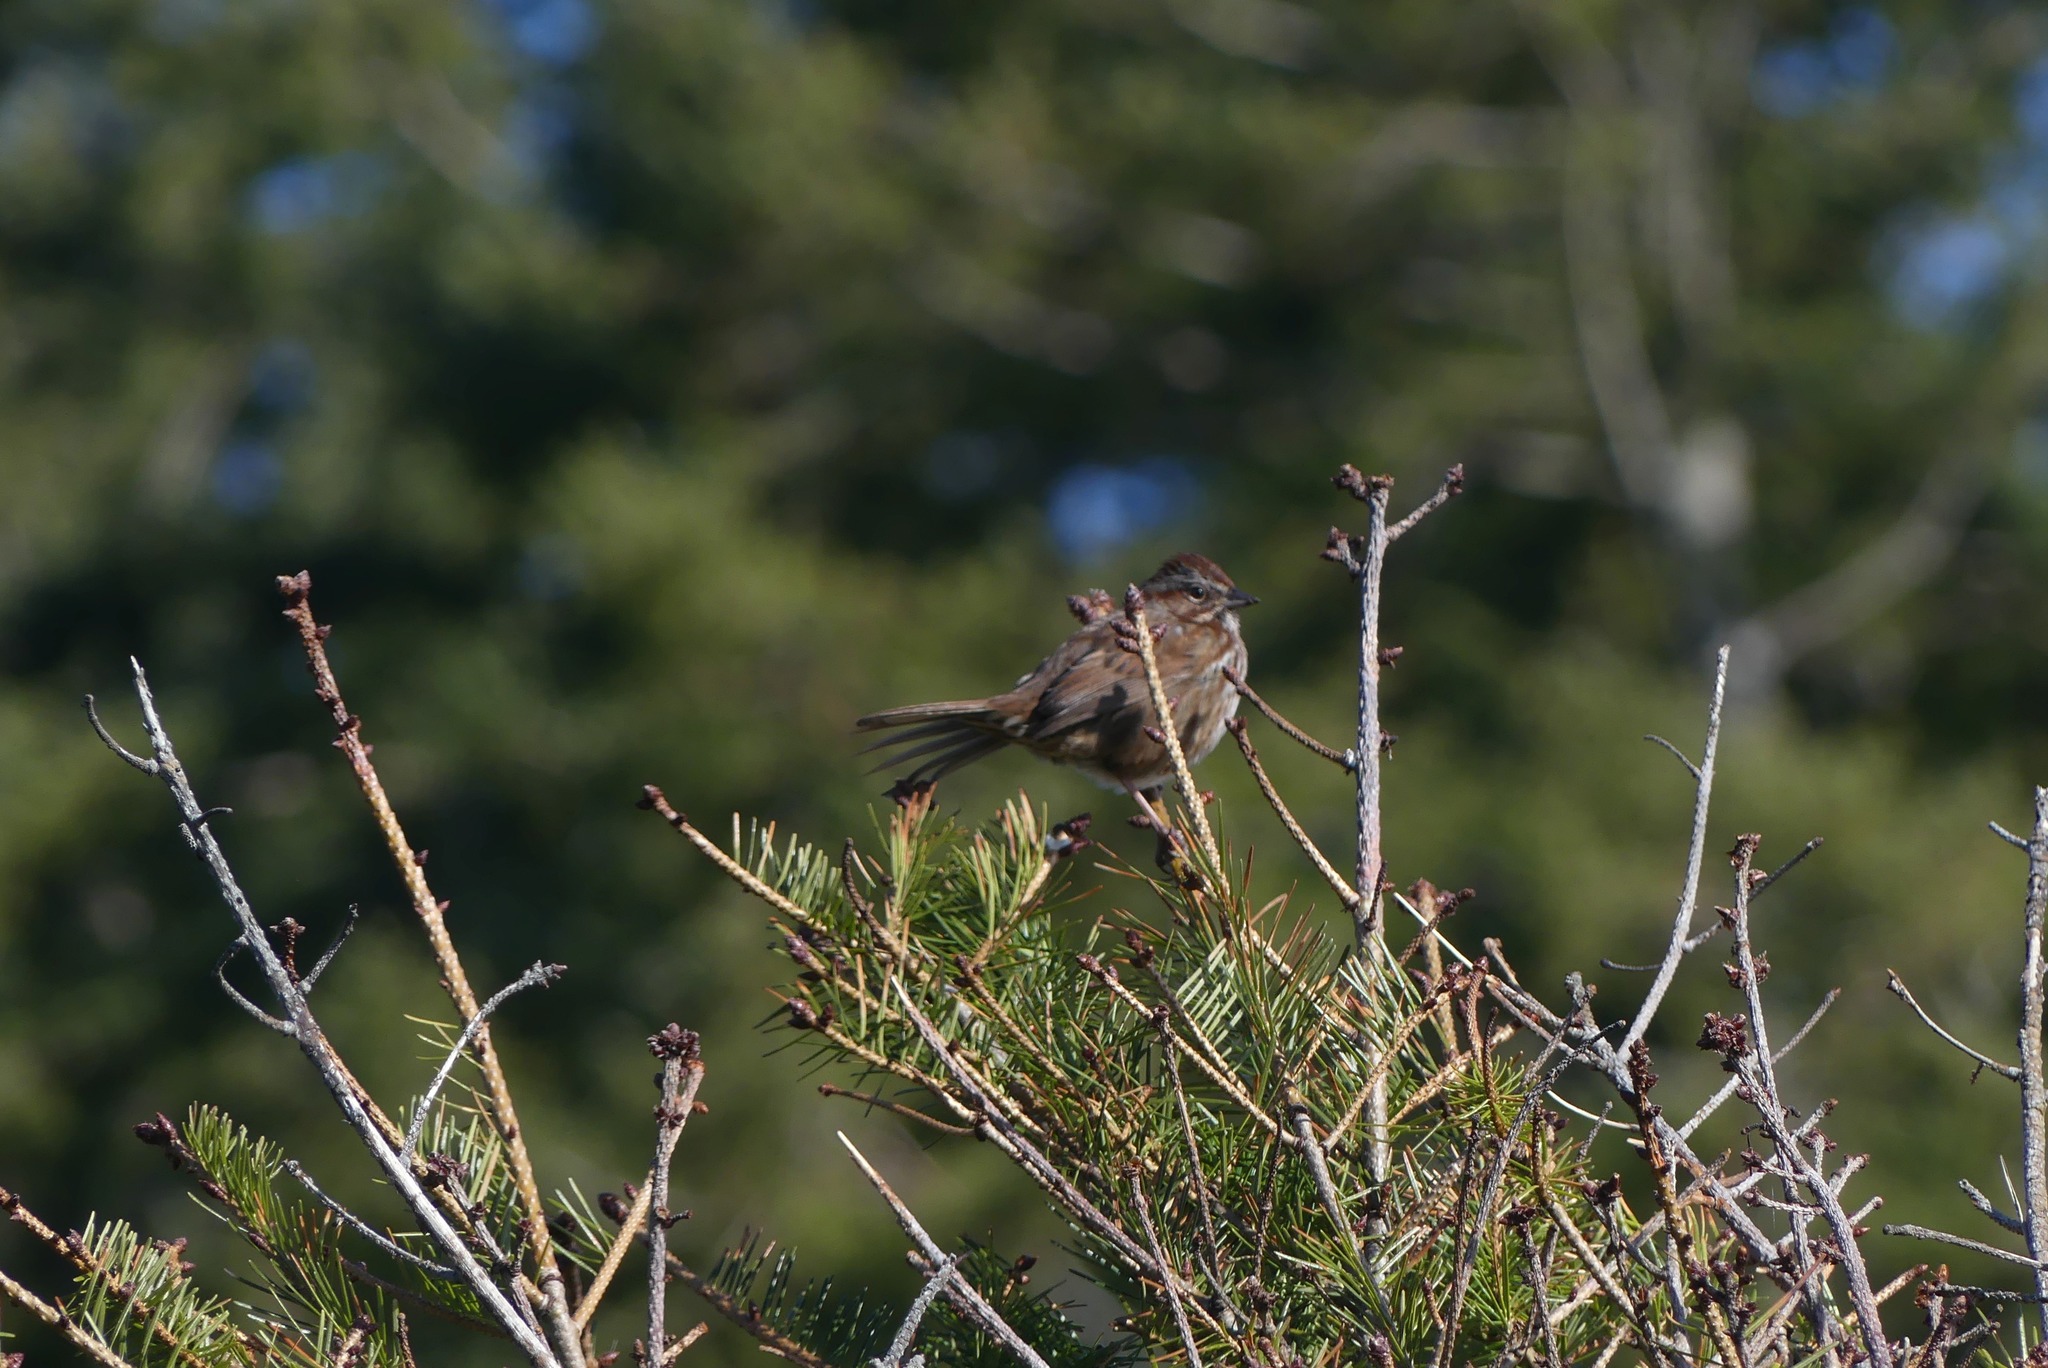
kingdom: Animalia
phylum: Chordata
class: Aves
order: Passeriformes
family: Passerellidae
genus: Melospiza
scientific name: Melospiza melodia
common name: Song sparrow
